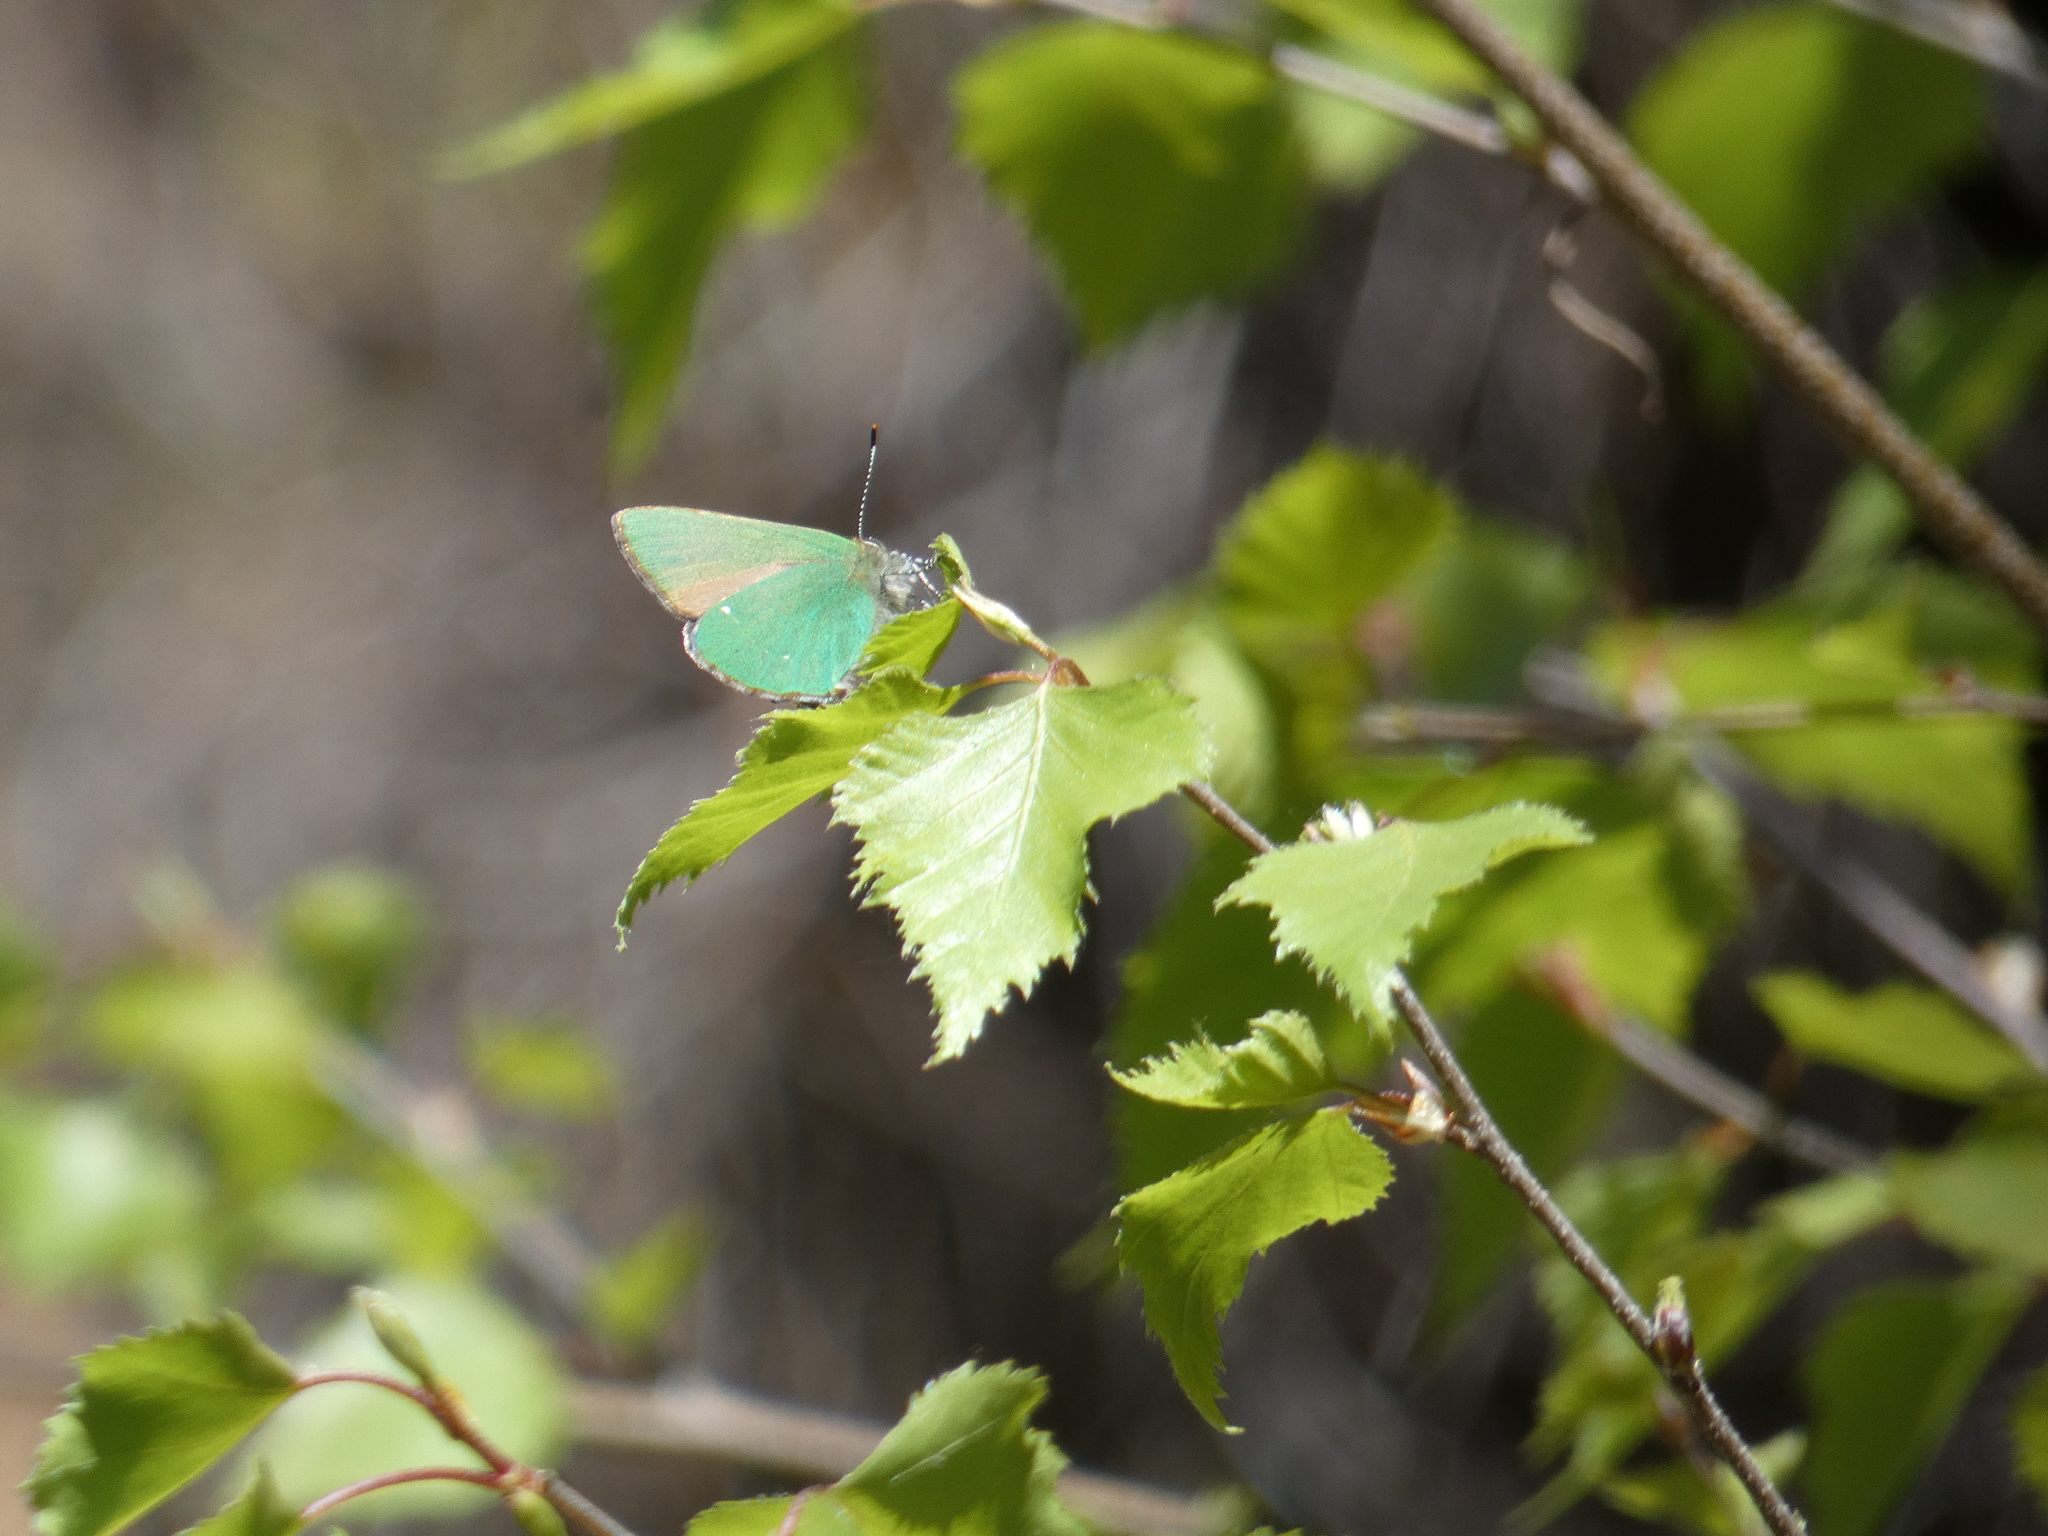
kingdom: Animalia
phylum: Arthropoda
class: Insecta
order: Lepidoptera
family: Lycaenidae
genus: Callophrys
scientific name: Callophrys rubi
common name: Green hairstreak
